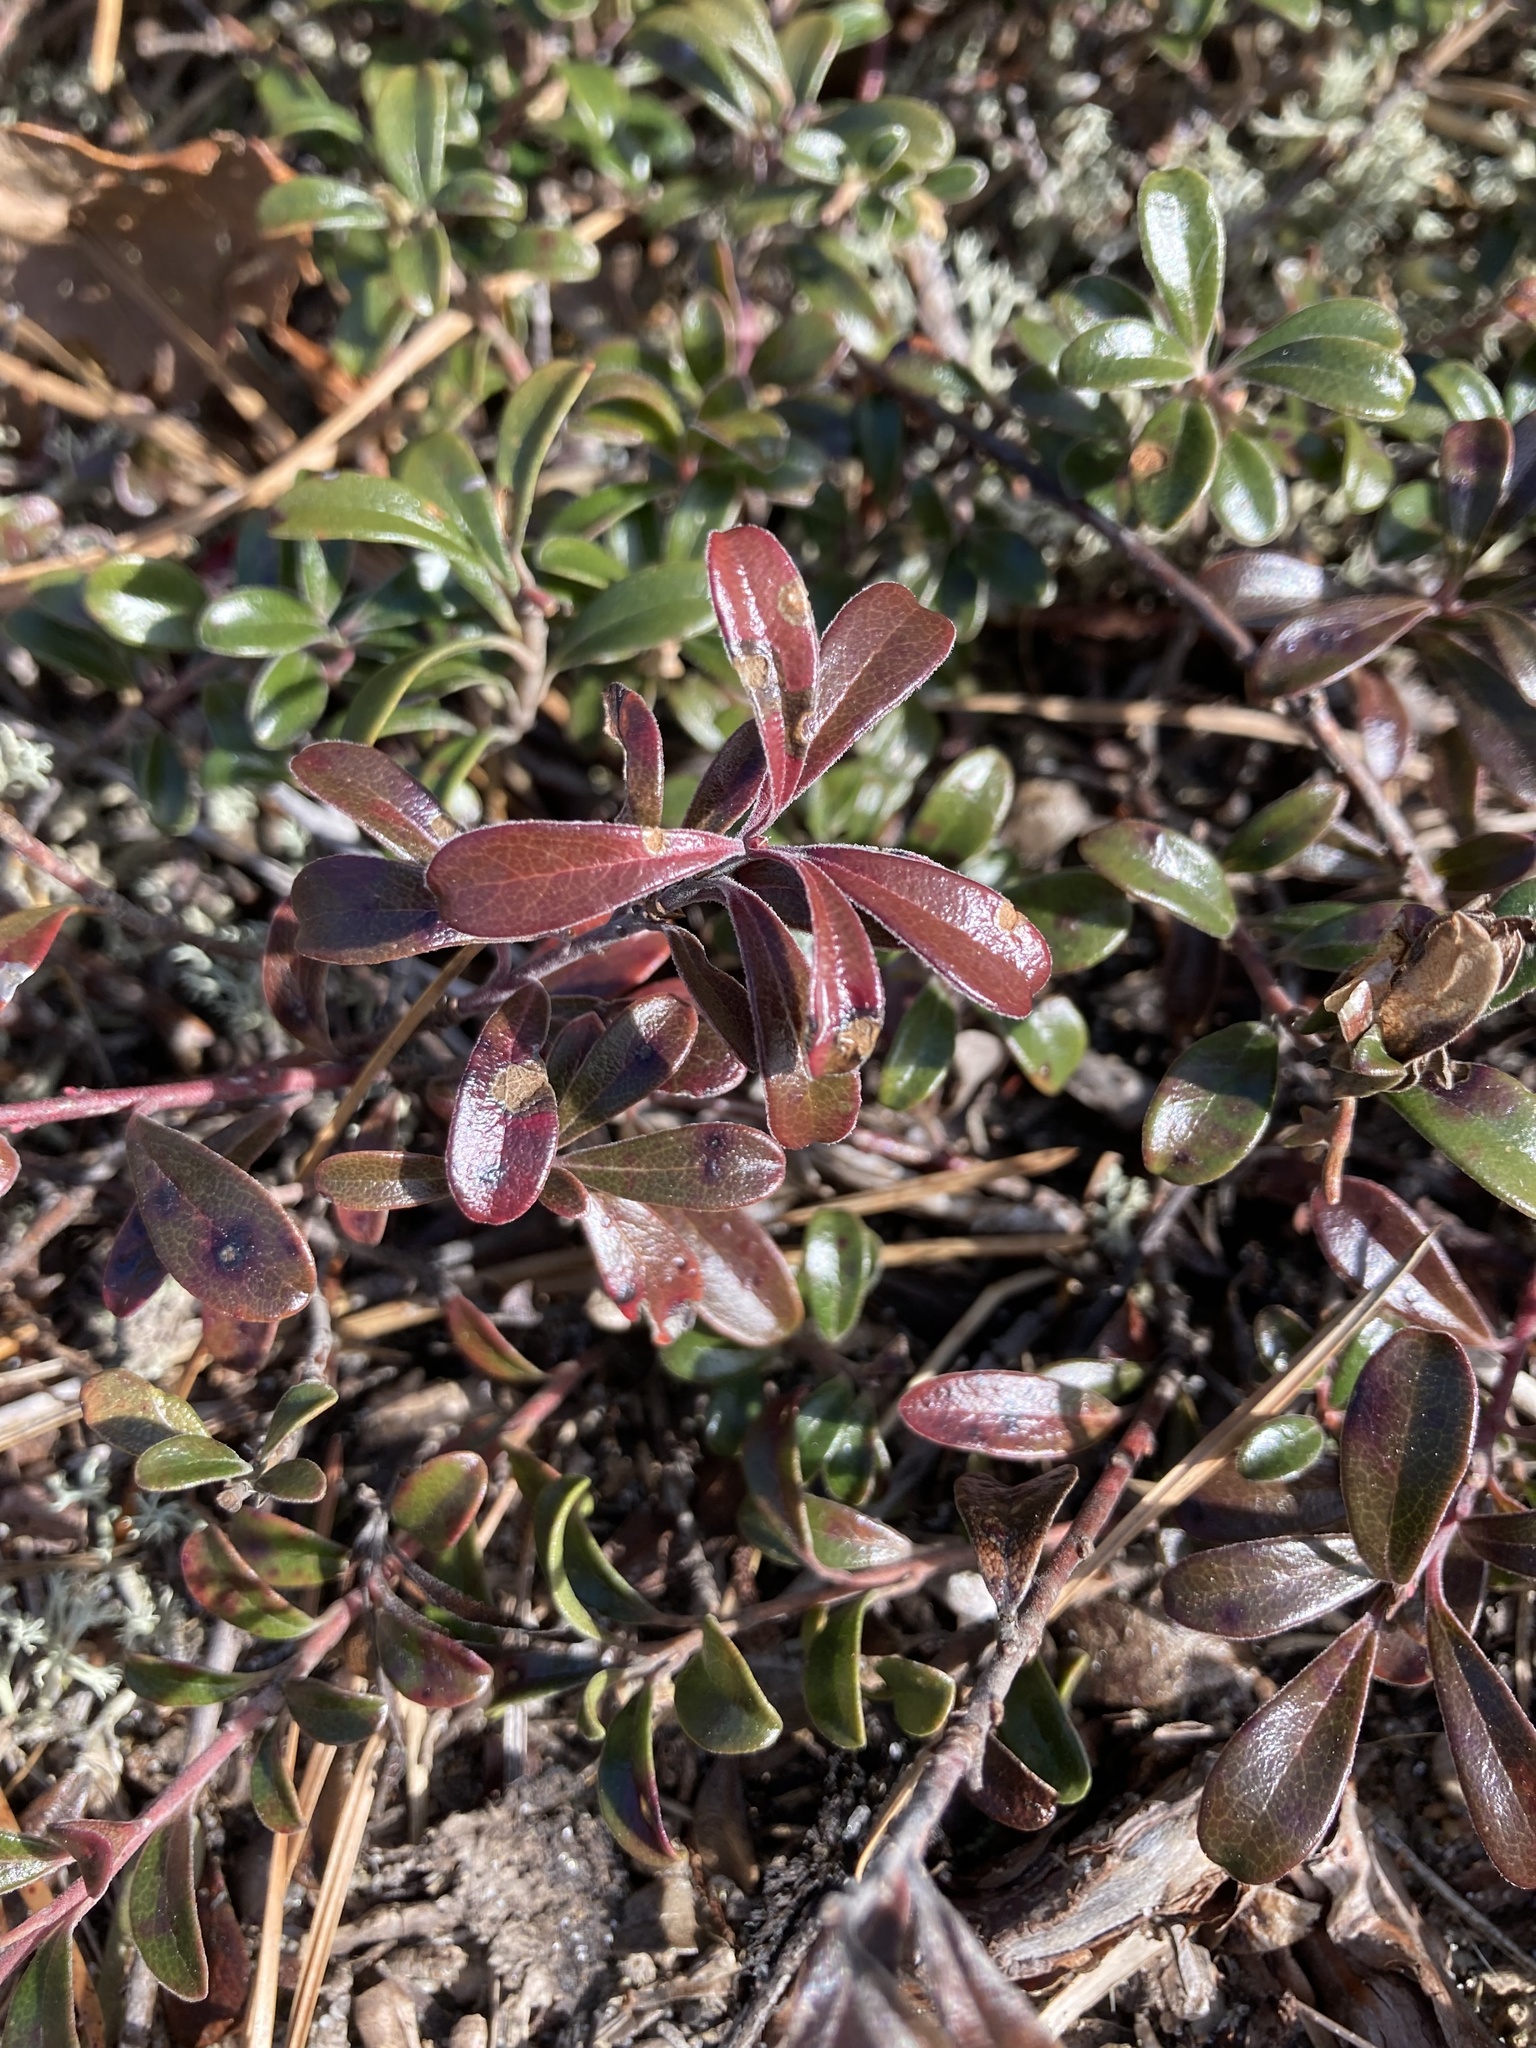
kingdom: Plantae
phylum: Tracheophyta
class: Magnoliopsida
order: Ericales
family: Ericaceae
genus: Arctostaphylos
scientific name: Arctostaphylos uva-ursi
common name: Bearberry
